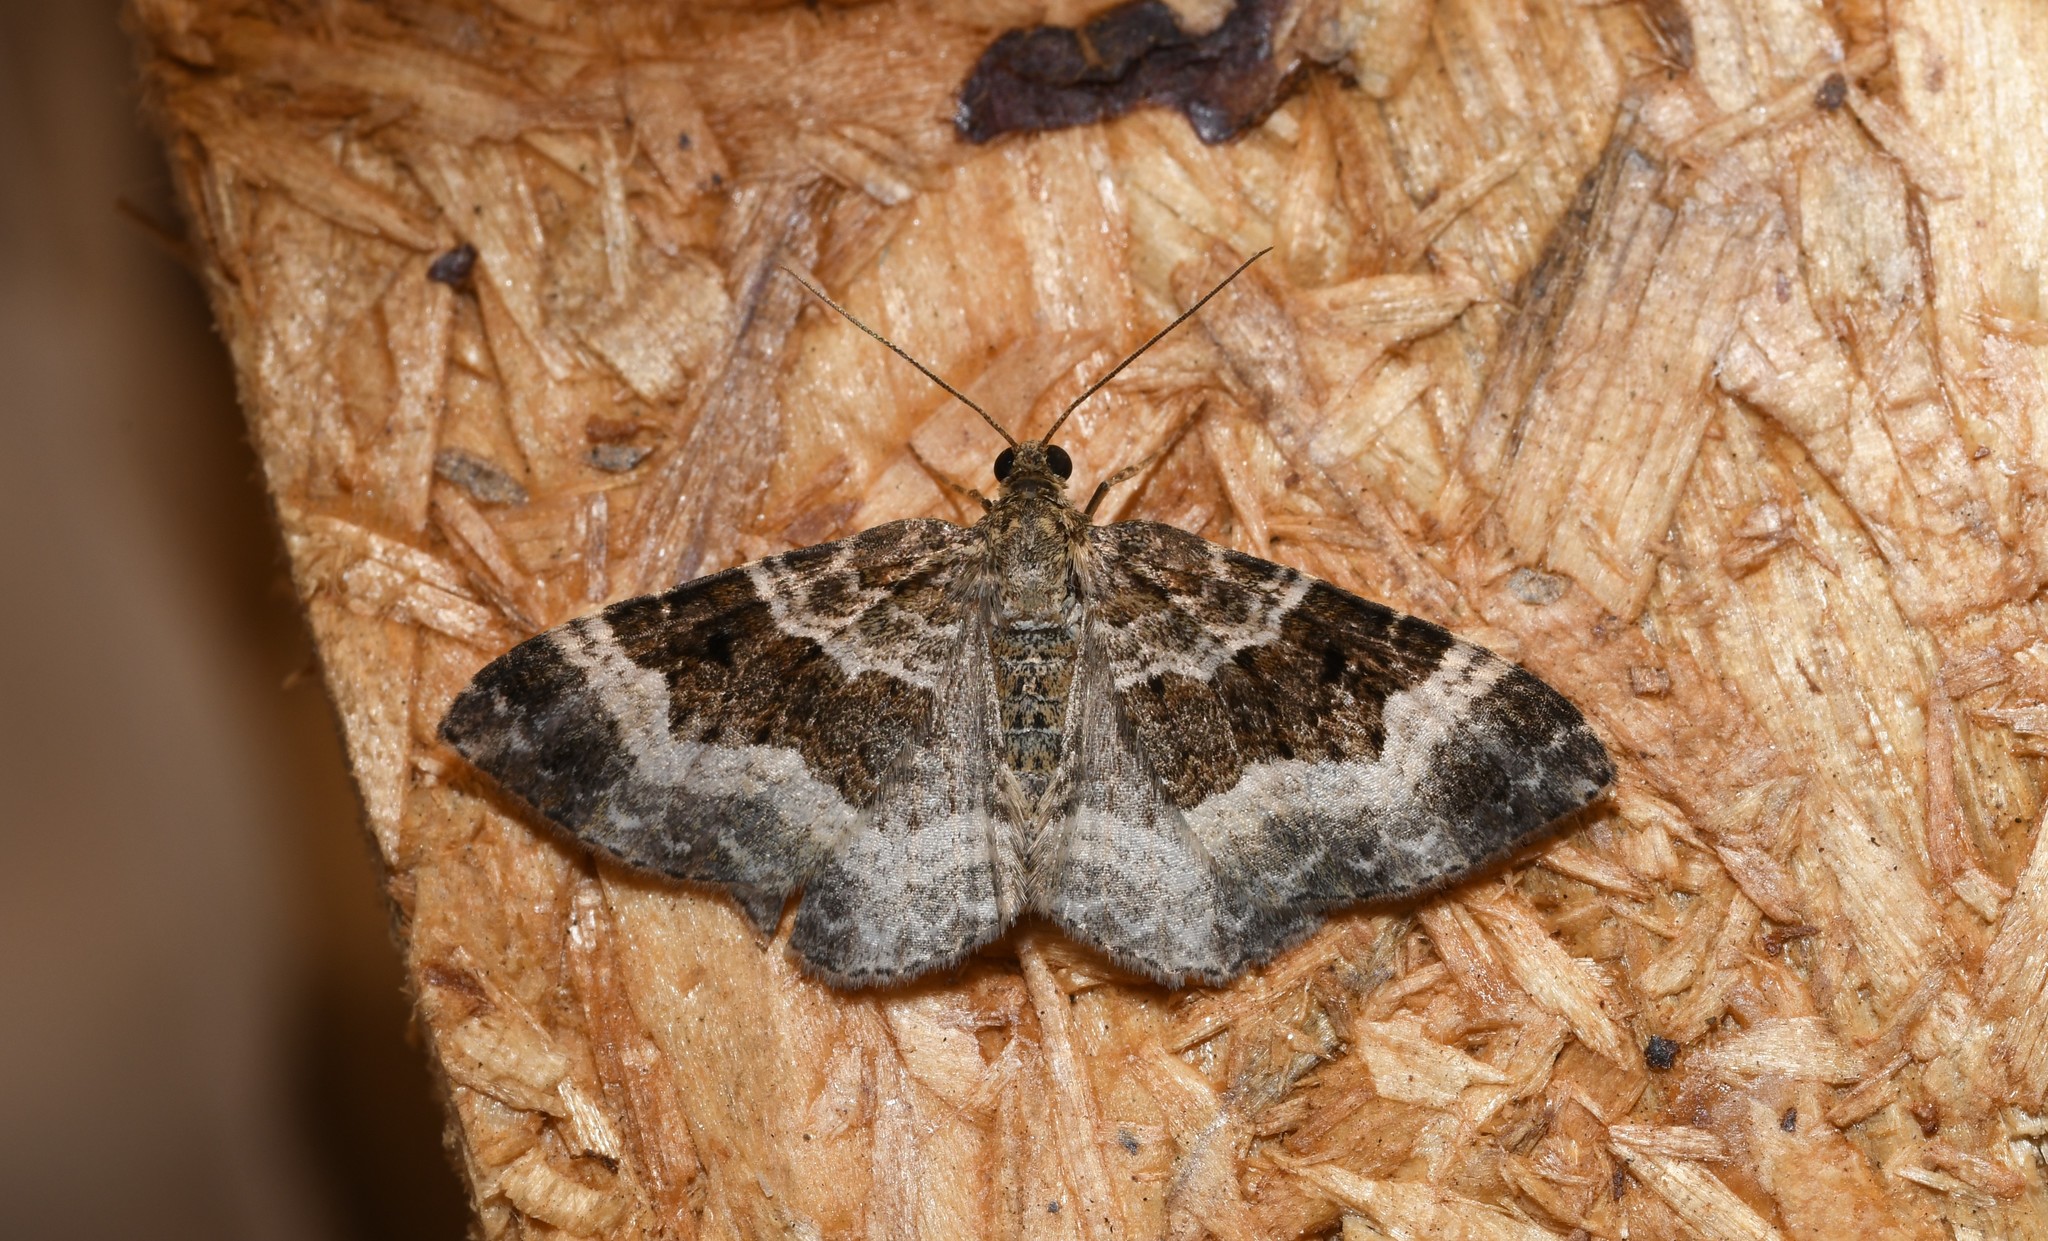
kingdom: Animalia
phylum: Arthropoda
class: Insecta
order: Lepidoptera
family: Geometridae
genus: Epirrhoe
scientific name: Epirrhoe alternata
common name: Common carpet
